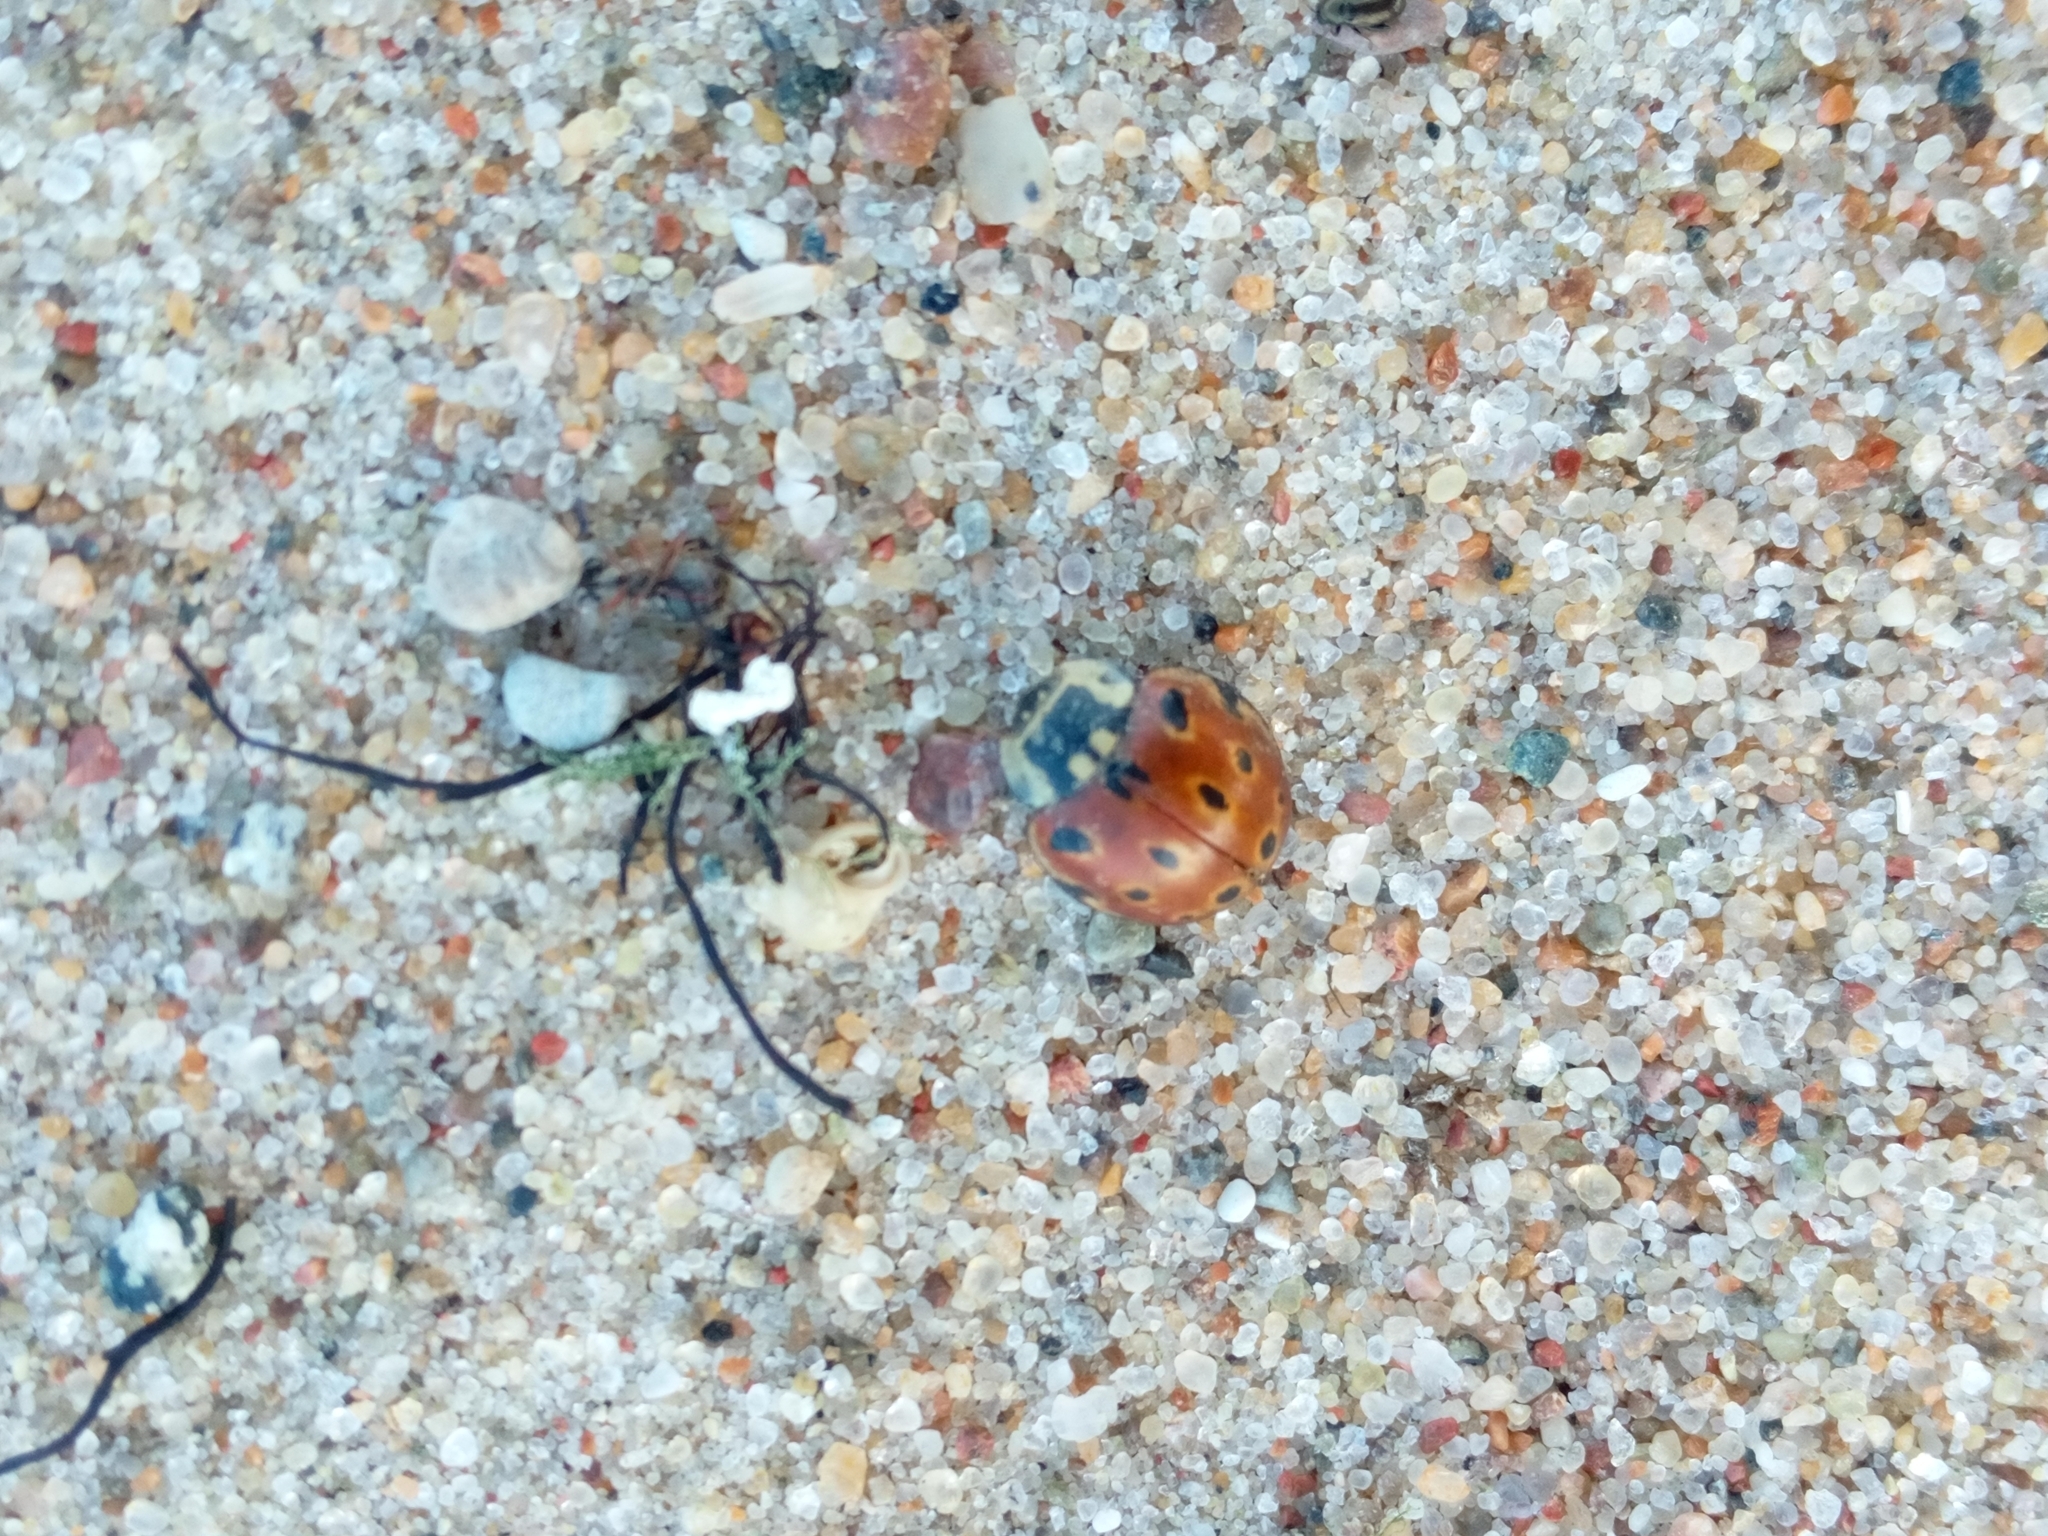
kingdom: Animalia
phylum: Arthropoda
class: Insecta
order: Coleoptera
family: Coccinellidae
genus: Anatis
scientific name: Anatis ocellata
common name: Eyed ladybird
